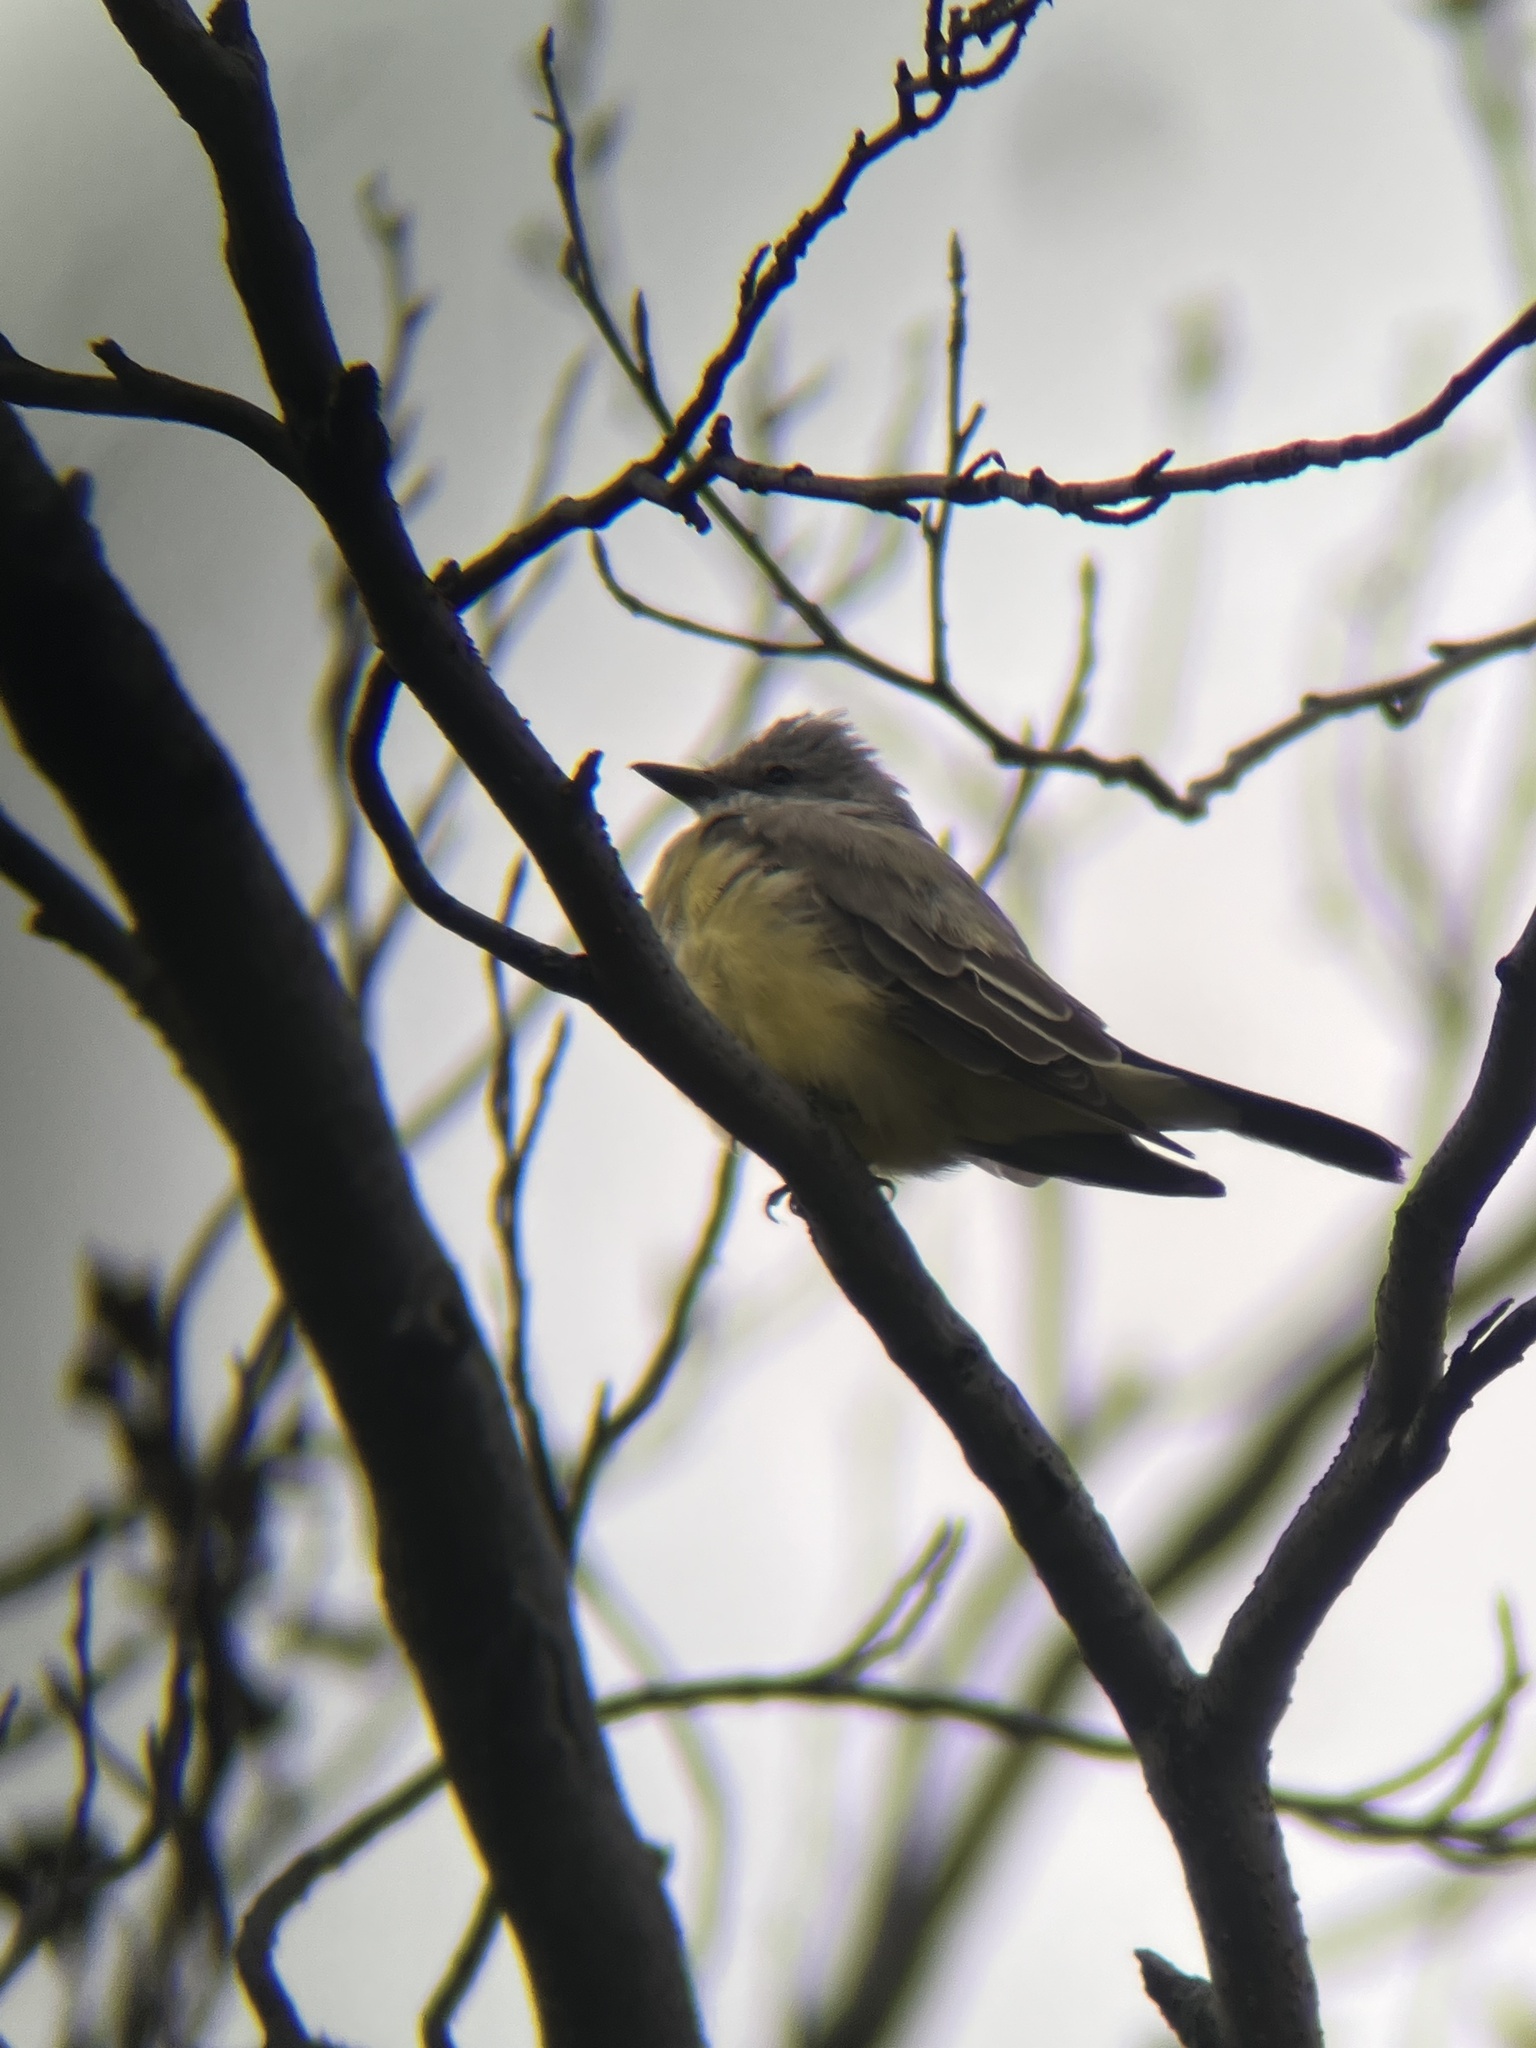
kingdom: Animalia
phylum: Chordata
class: Aves
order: Passeriformes
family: Tyrannidae
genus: Tyrannus
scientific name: Tyrannus verticalis
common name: Western kingbird
